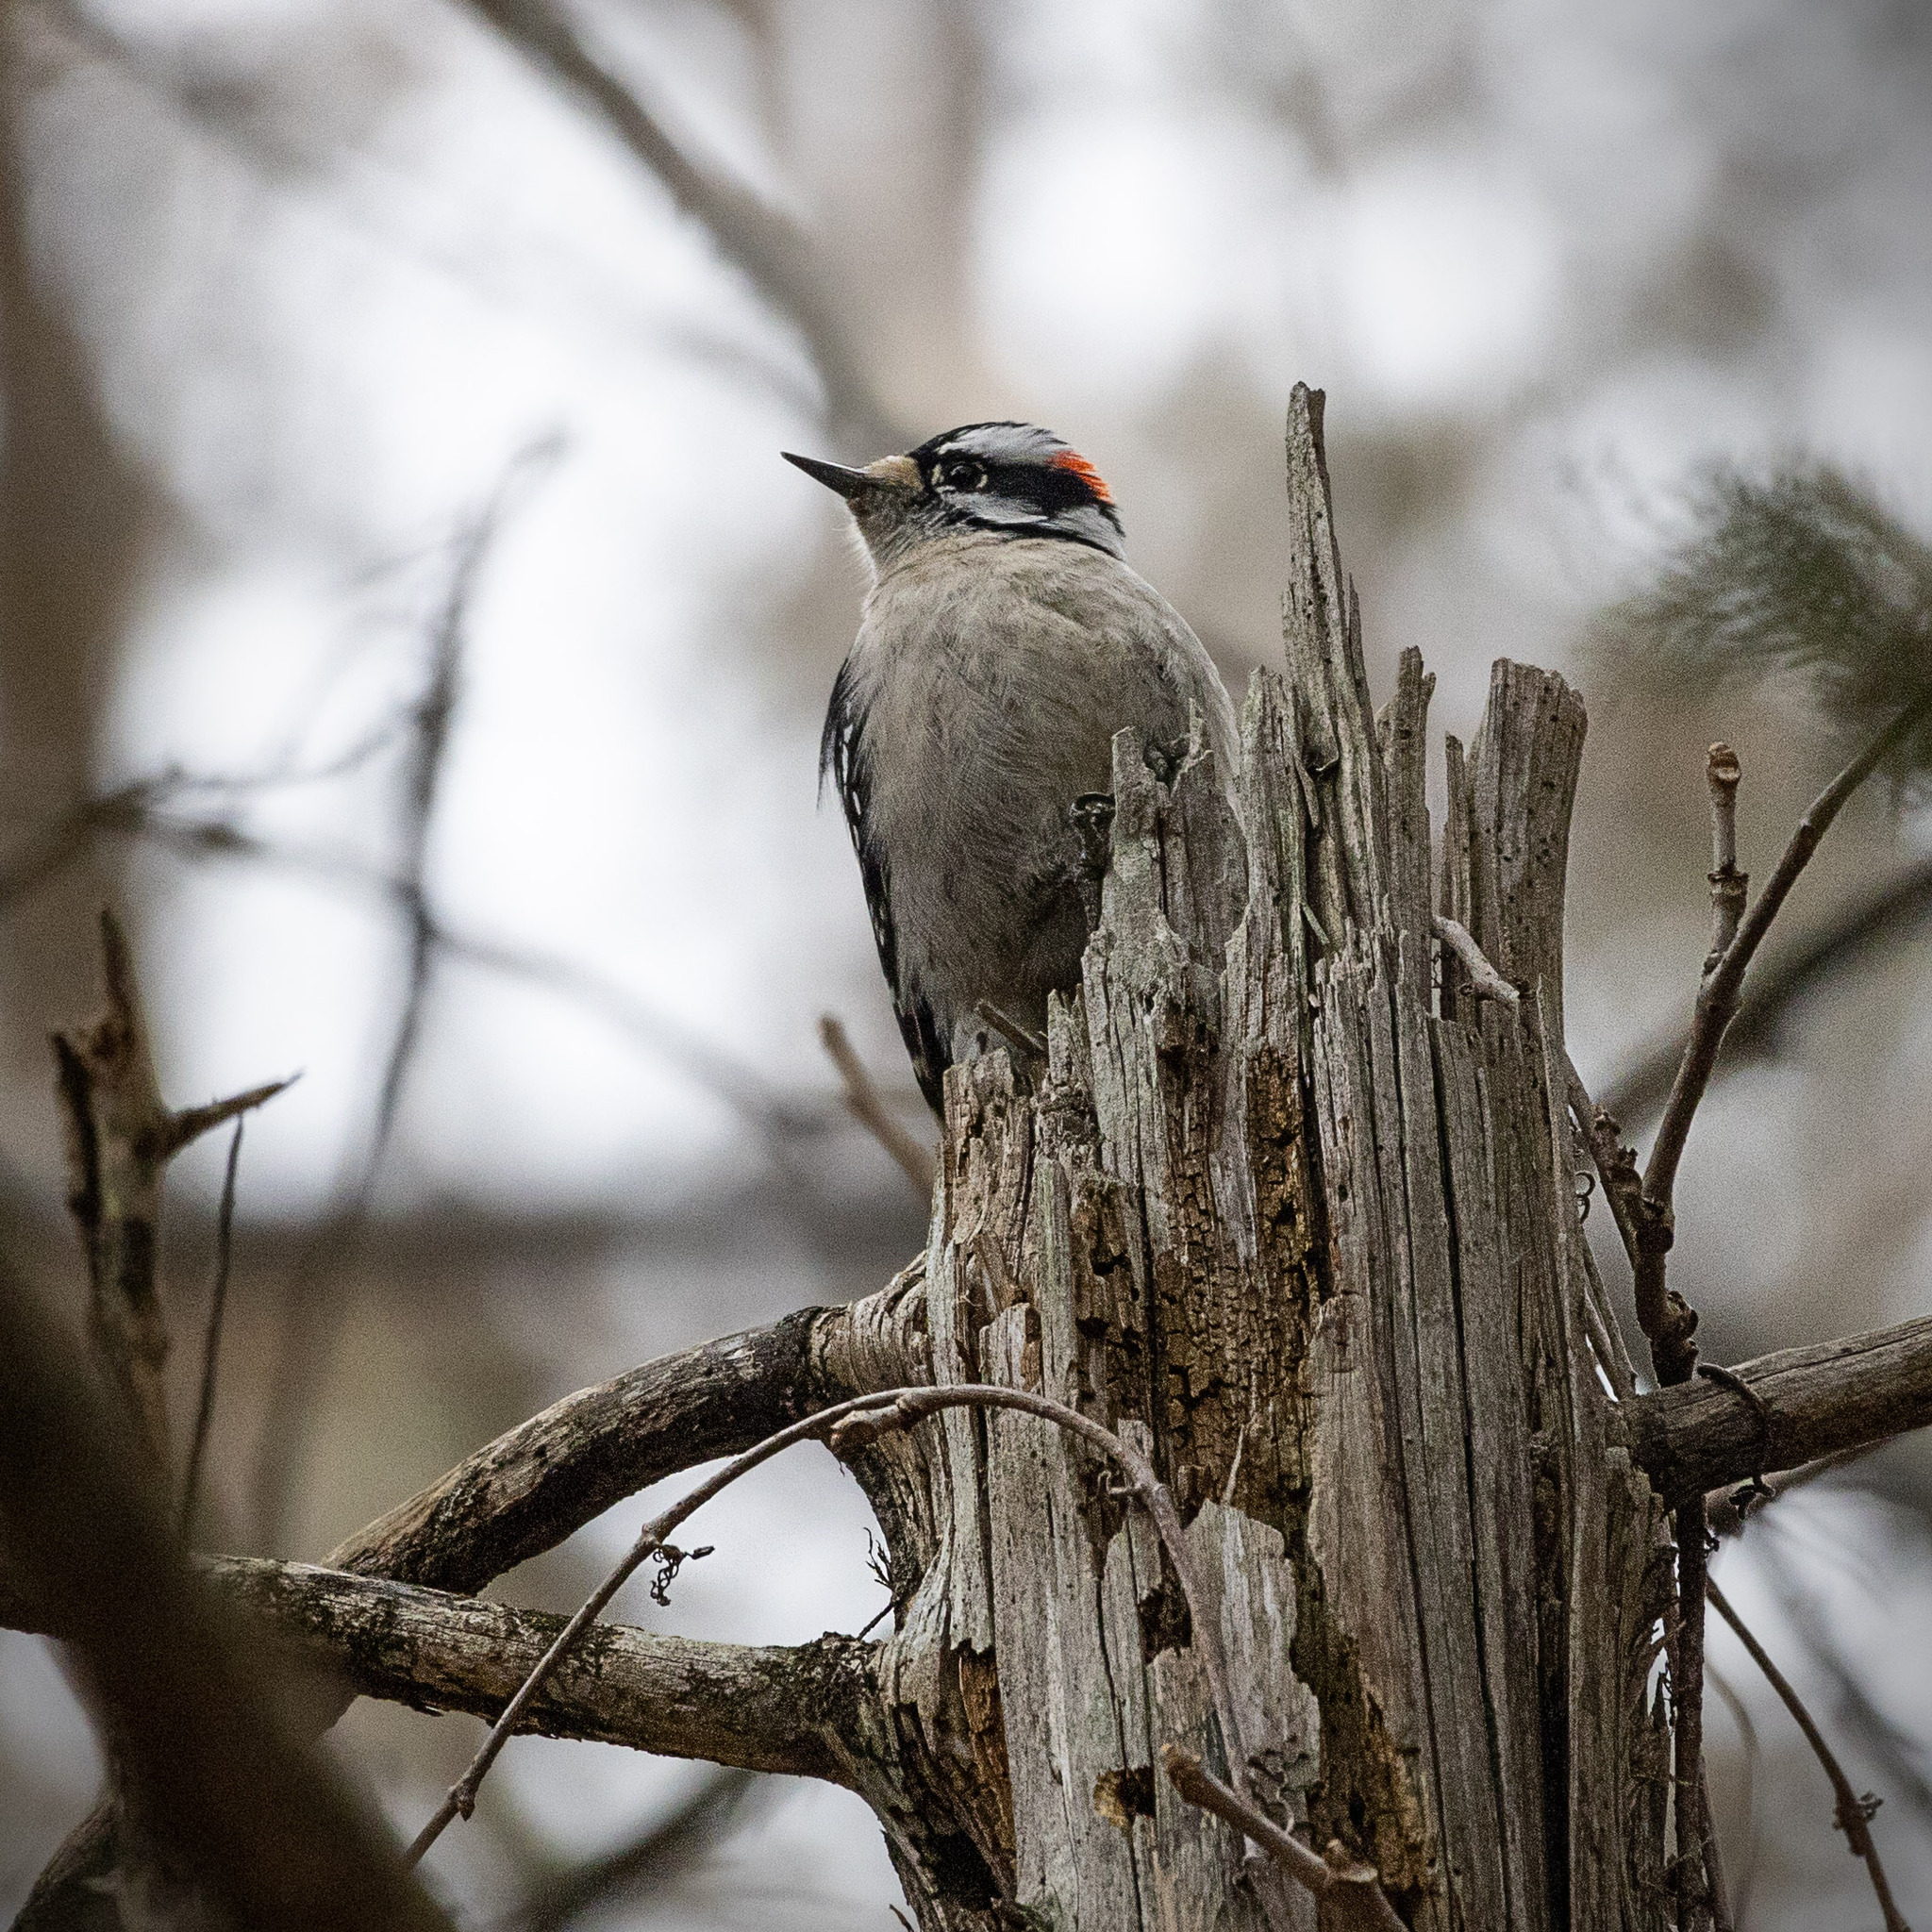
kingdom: Animalia
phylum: Chordata
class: Aves
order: Piciformes
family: Picidae
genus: Dryobates
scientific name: Dryobates pubescens
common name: Downy woodpecker
